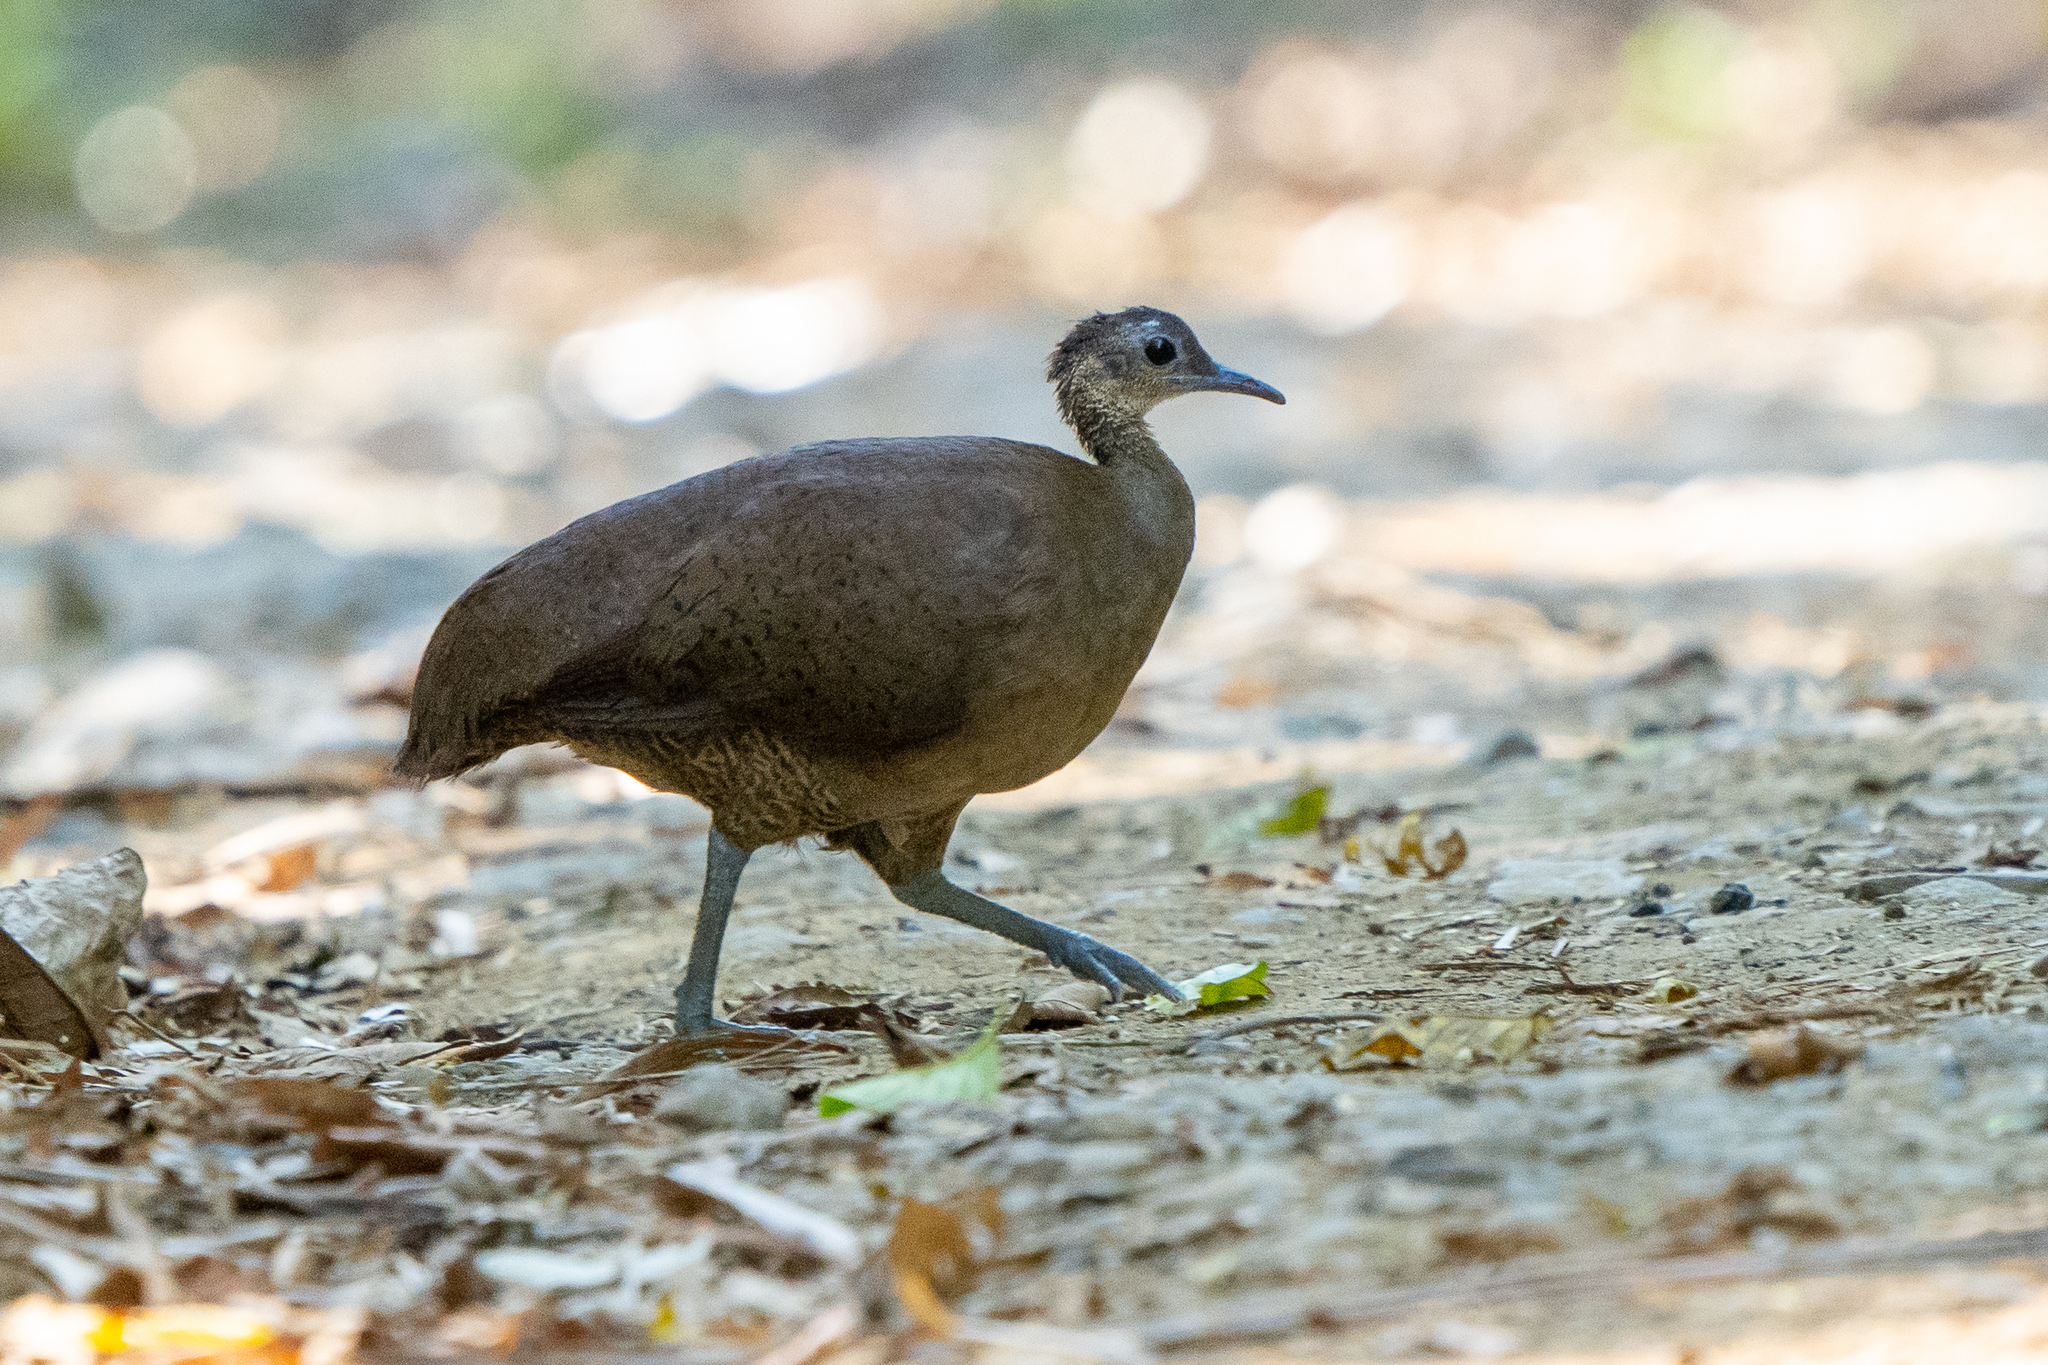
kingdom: Animalia
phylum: Chordata
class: Aves
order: Tinamiformes
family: Tinamidae
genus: Tinamus
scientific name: Tinamus major
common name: Great tinamou
